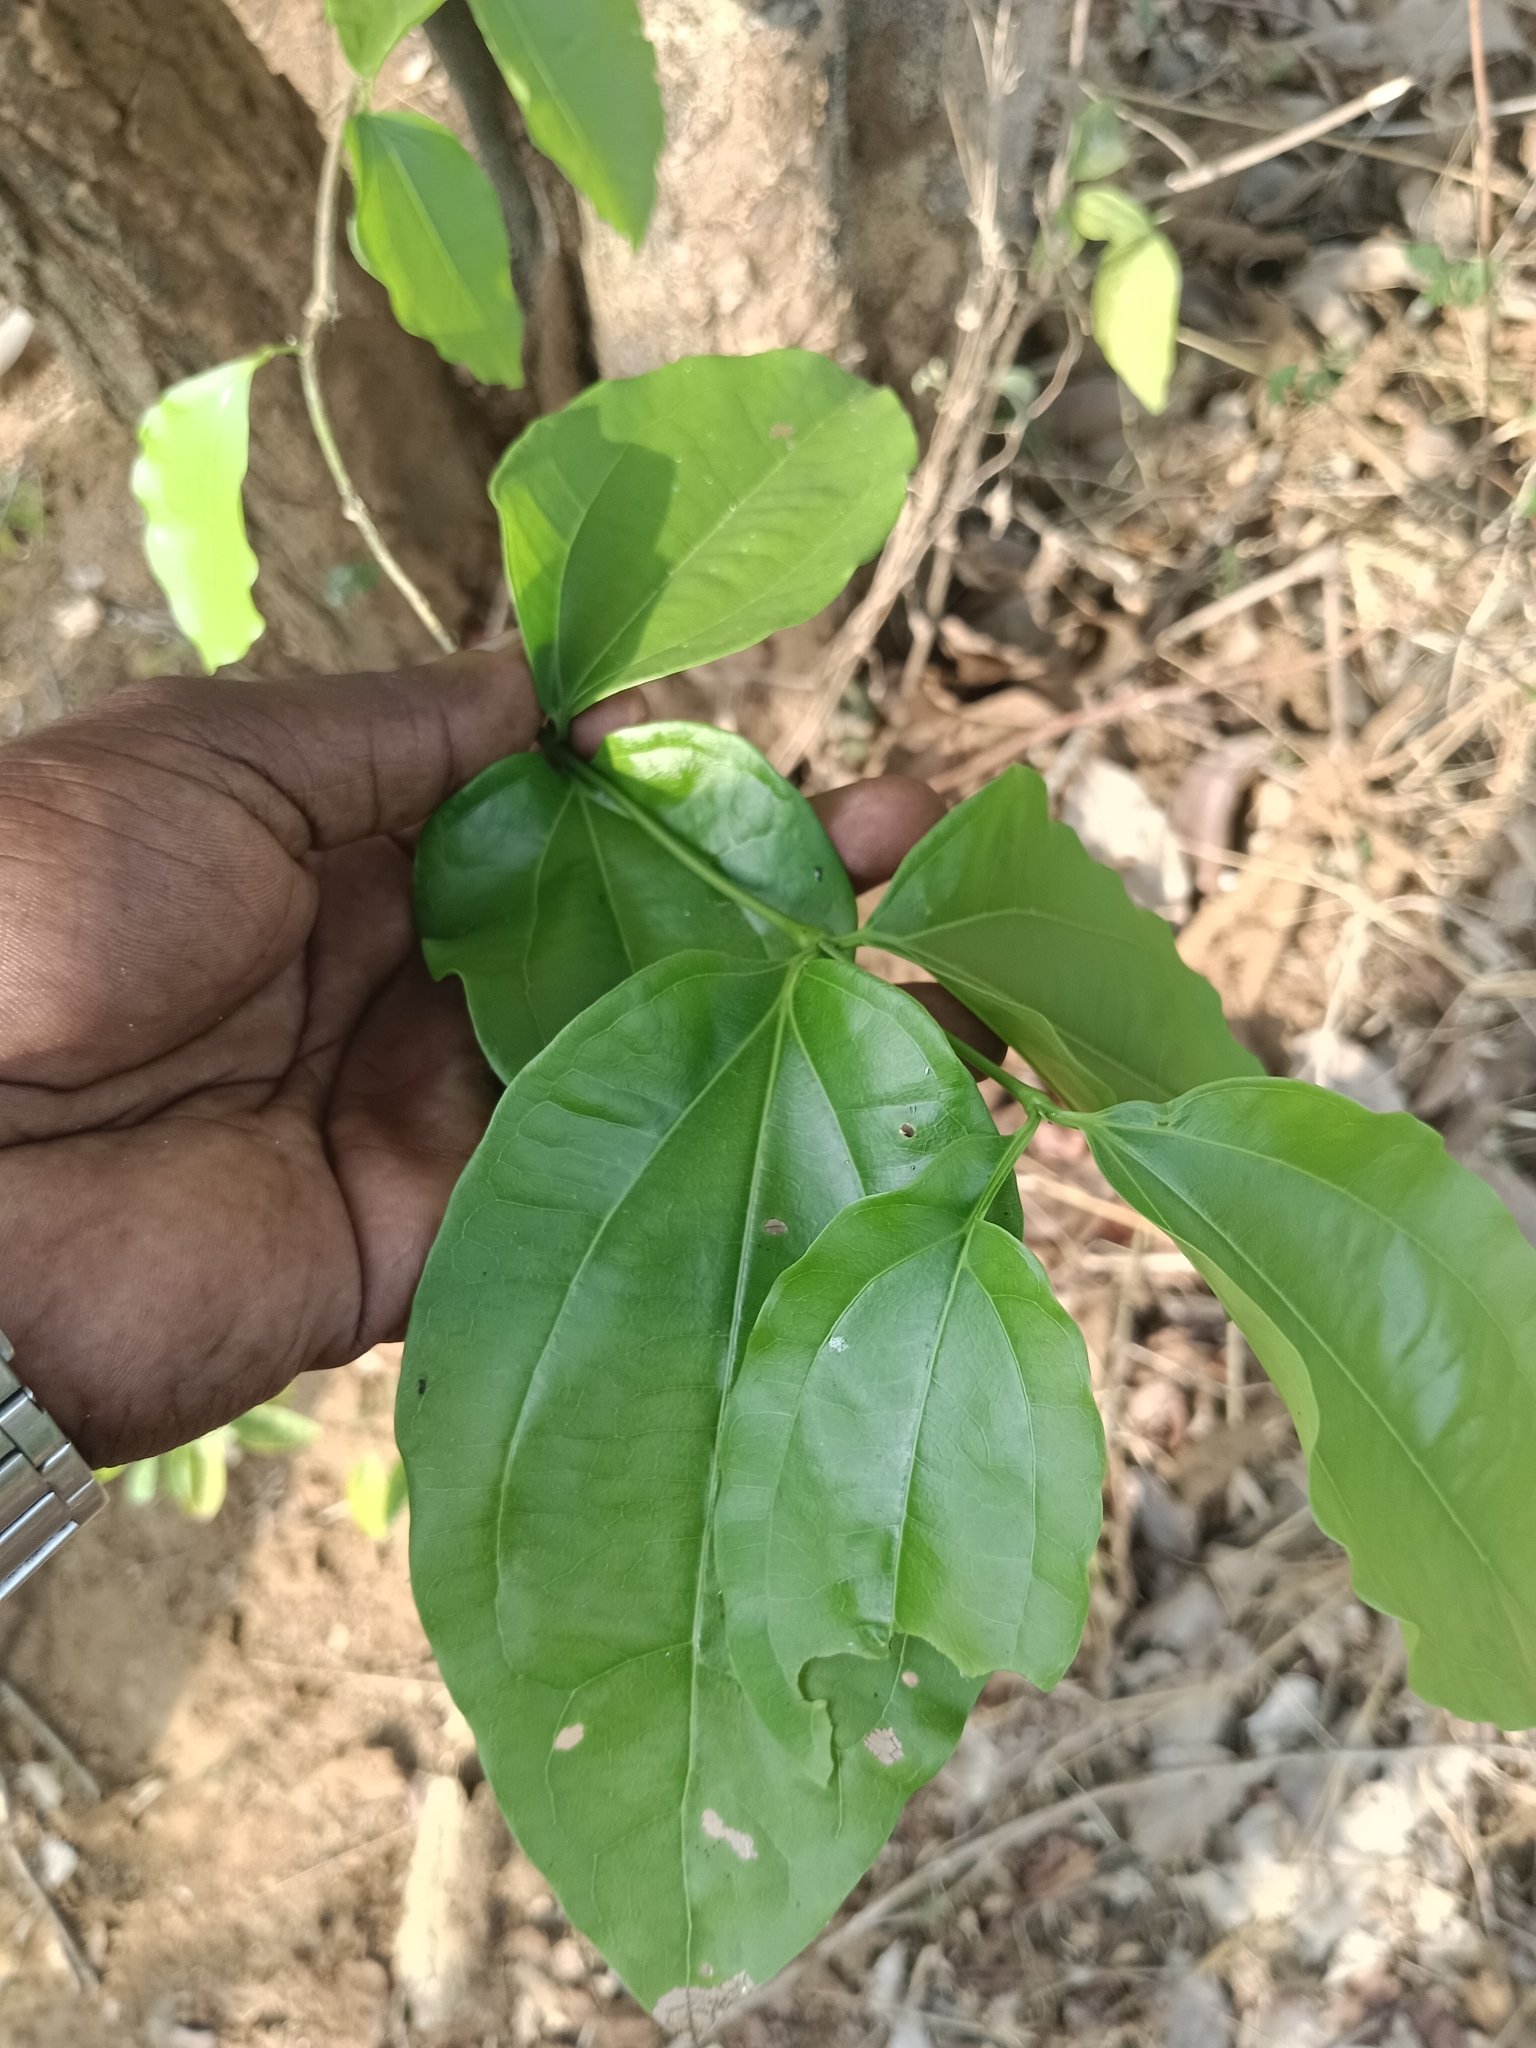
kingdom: Plantae
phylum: Tracheophyta
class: Magnoliopsida
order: Gentianales
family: Loganiaceae
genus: Strychnos
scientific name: Strychnos nux-vomica
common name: Strychninetree
